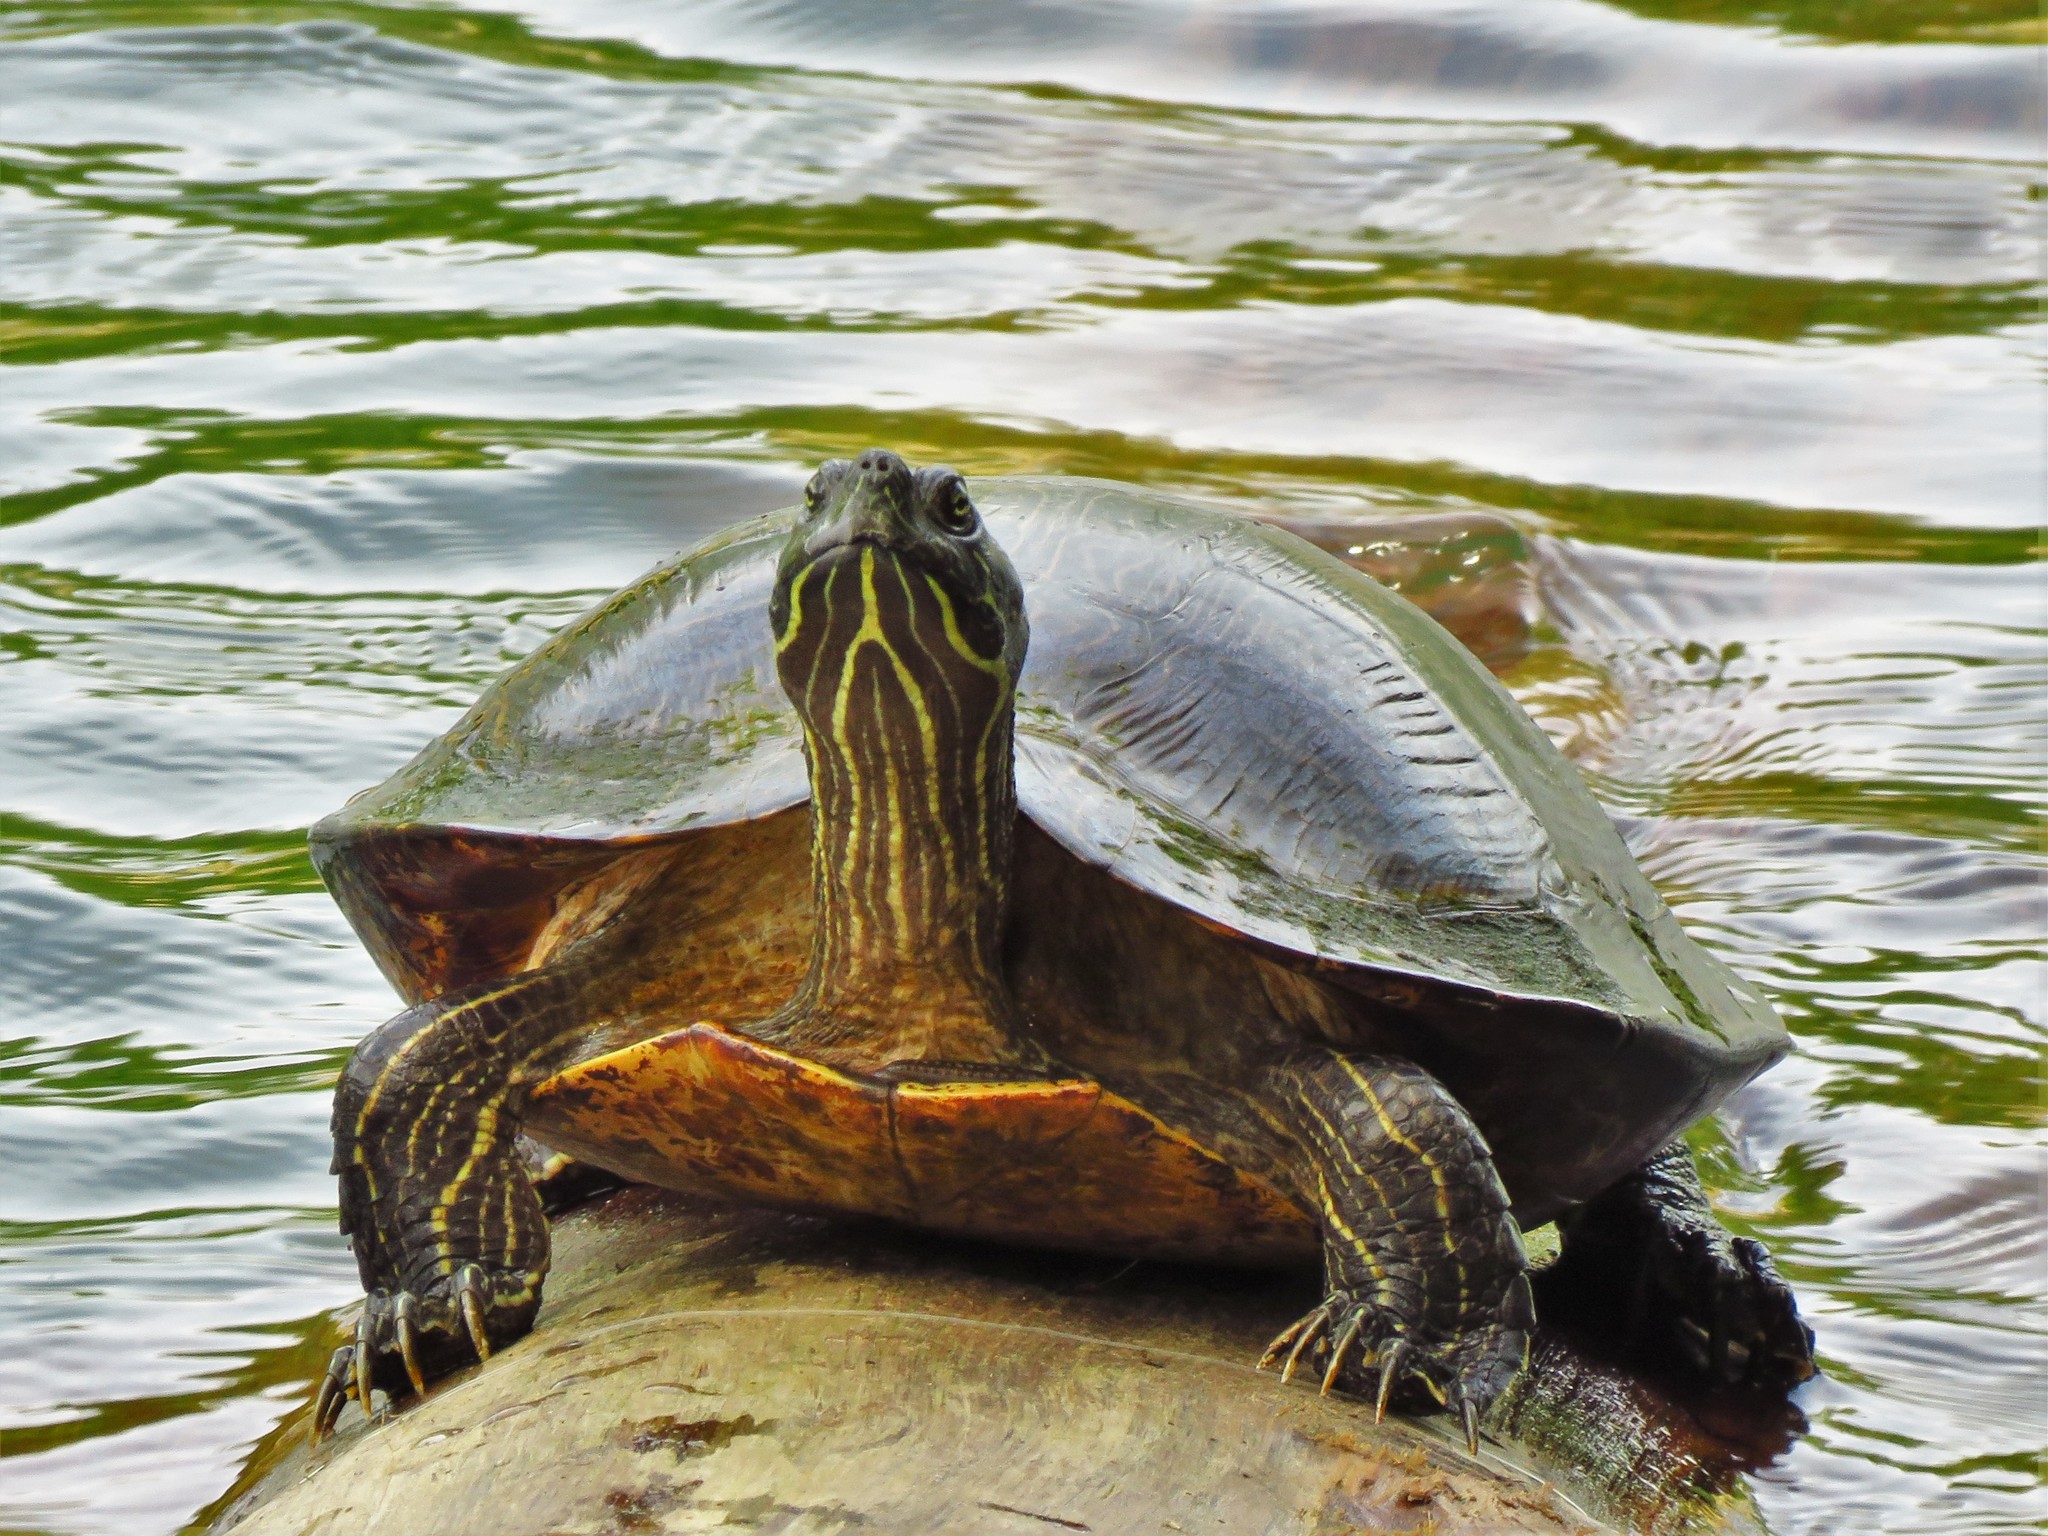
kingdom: Animalia
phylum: Chordata
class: Testudines
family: Emydidae
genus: Pseudemys
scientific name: Pseudemys concinna
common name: Eastern river cooter
